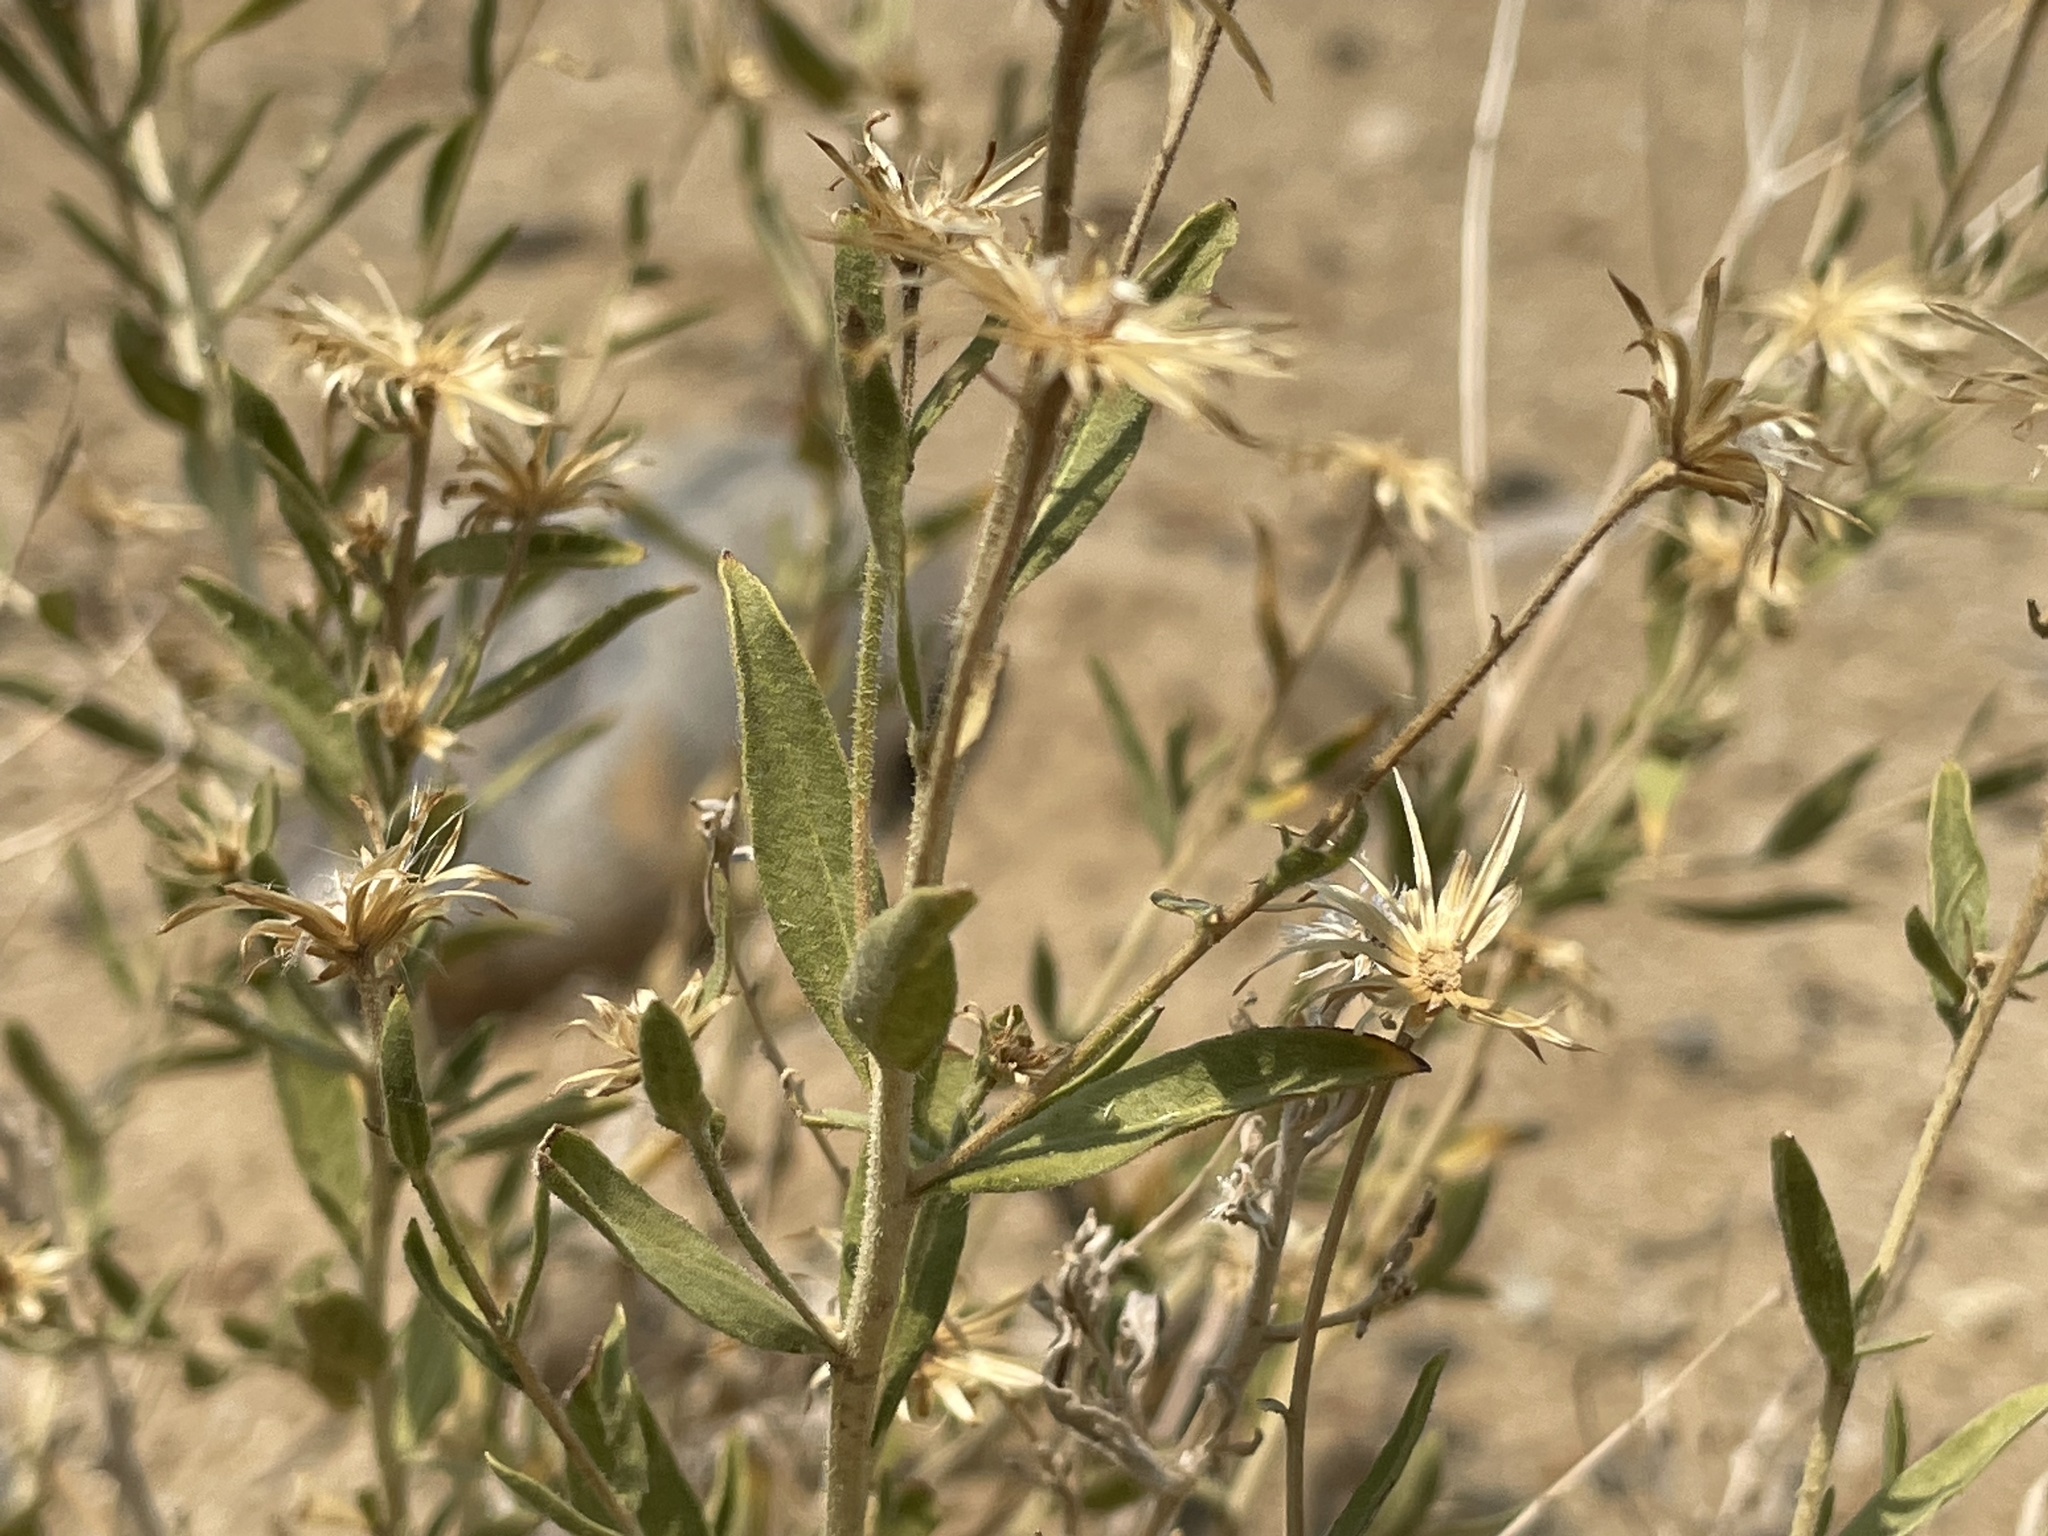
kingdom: Plantae
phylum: Tracheophyta
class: Magnoliopsida
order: Asterales
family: Asteraceae
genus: Brickellia
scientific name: Brickellia oblongifolia
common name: Mojave brickellbush
